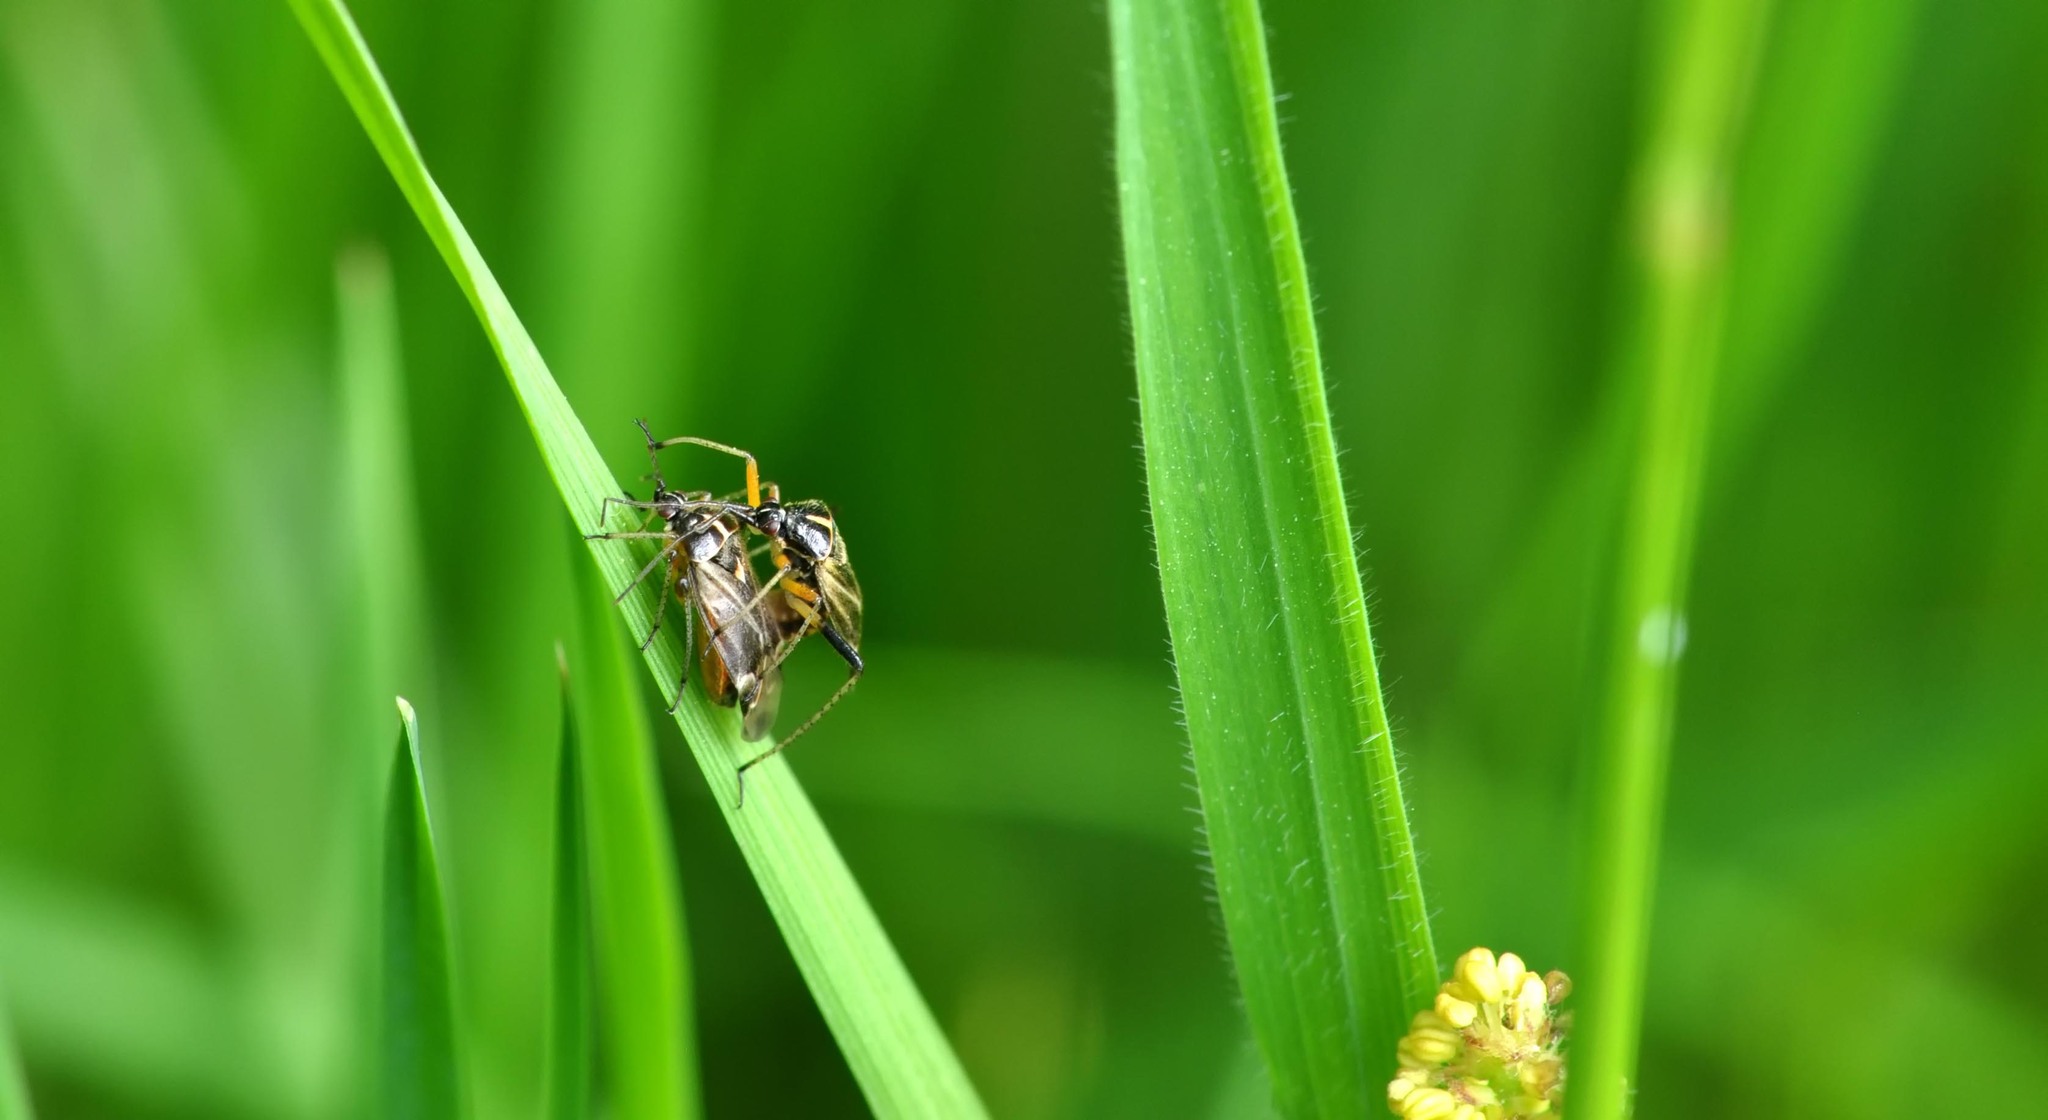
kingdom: Animalia
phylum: Arthropoda
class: Insecta
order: Hemiptera
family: Miridae
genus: Harpocera
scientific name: Harpocera thoracica
